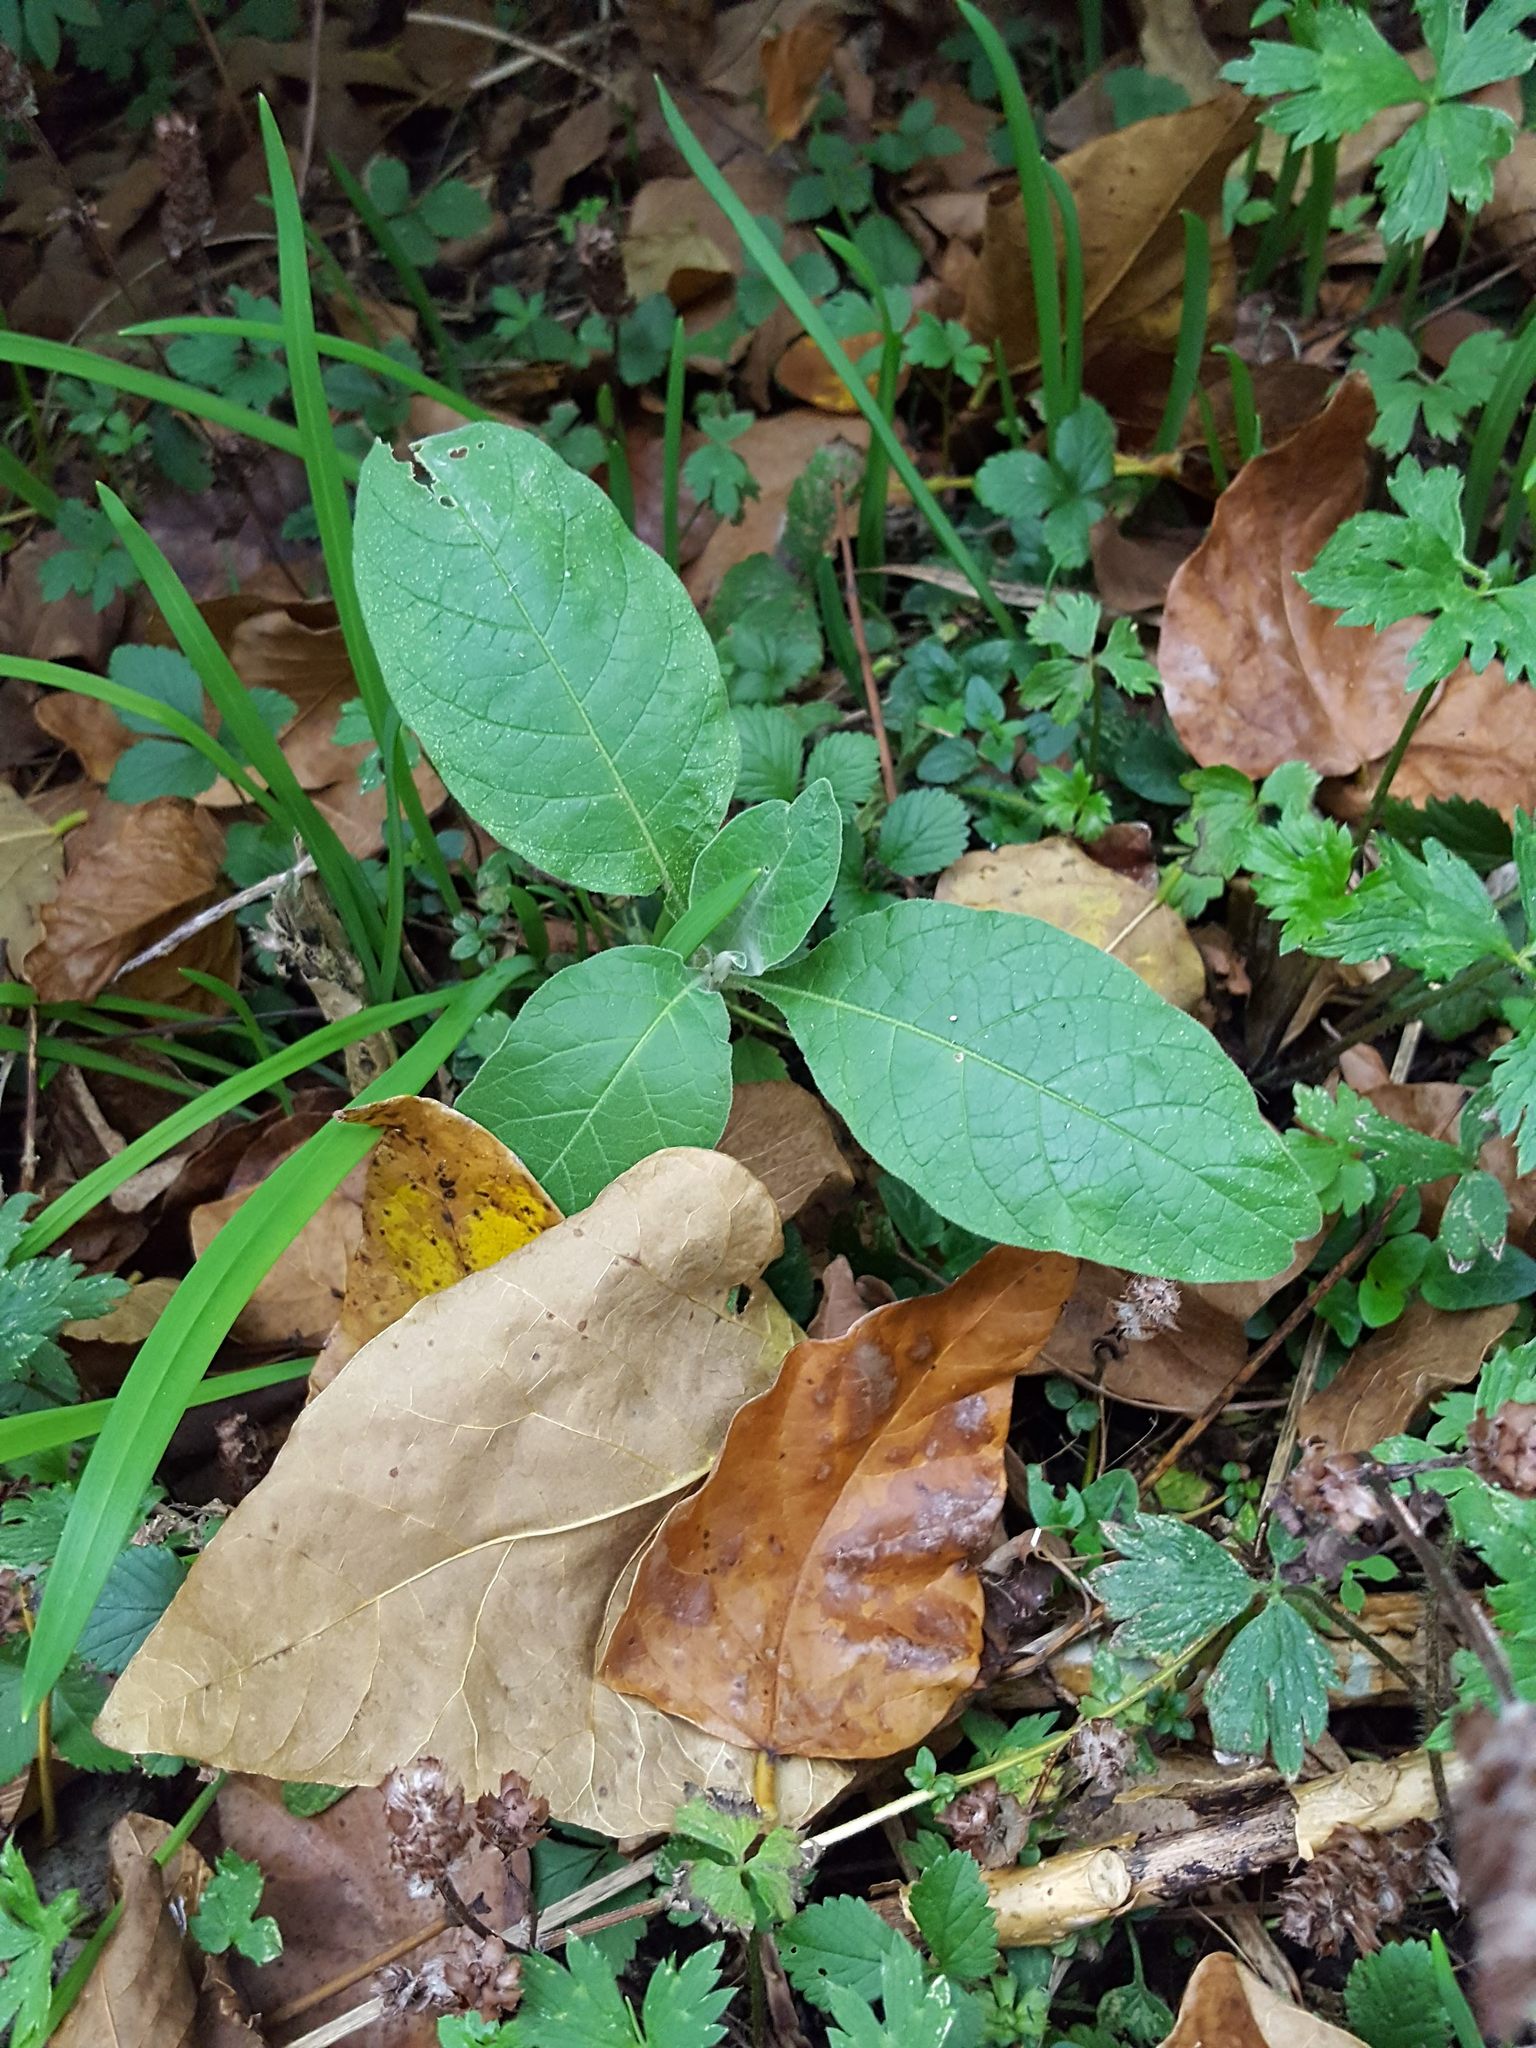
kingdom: Plantae
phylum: Tracheophyta
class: Magnoliopsida
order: Solanales
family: Solanaceae
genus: Solanum
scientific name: Solanum mauritianum
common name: Earleaf nightshade
